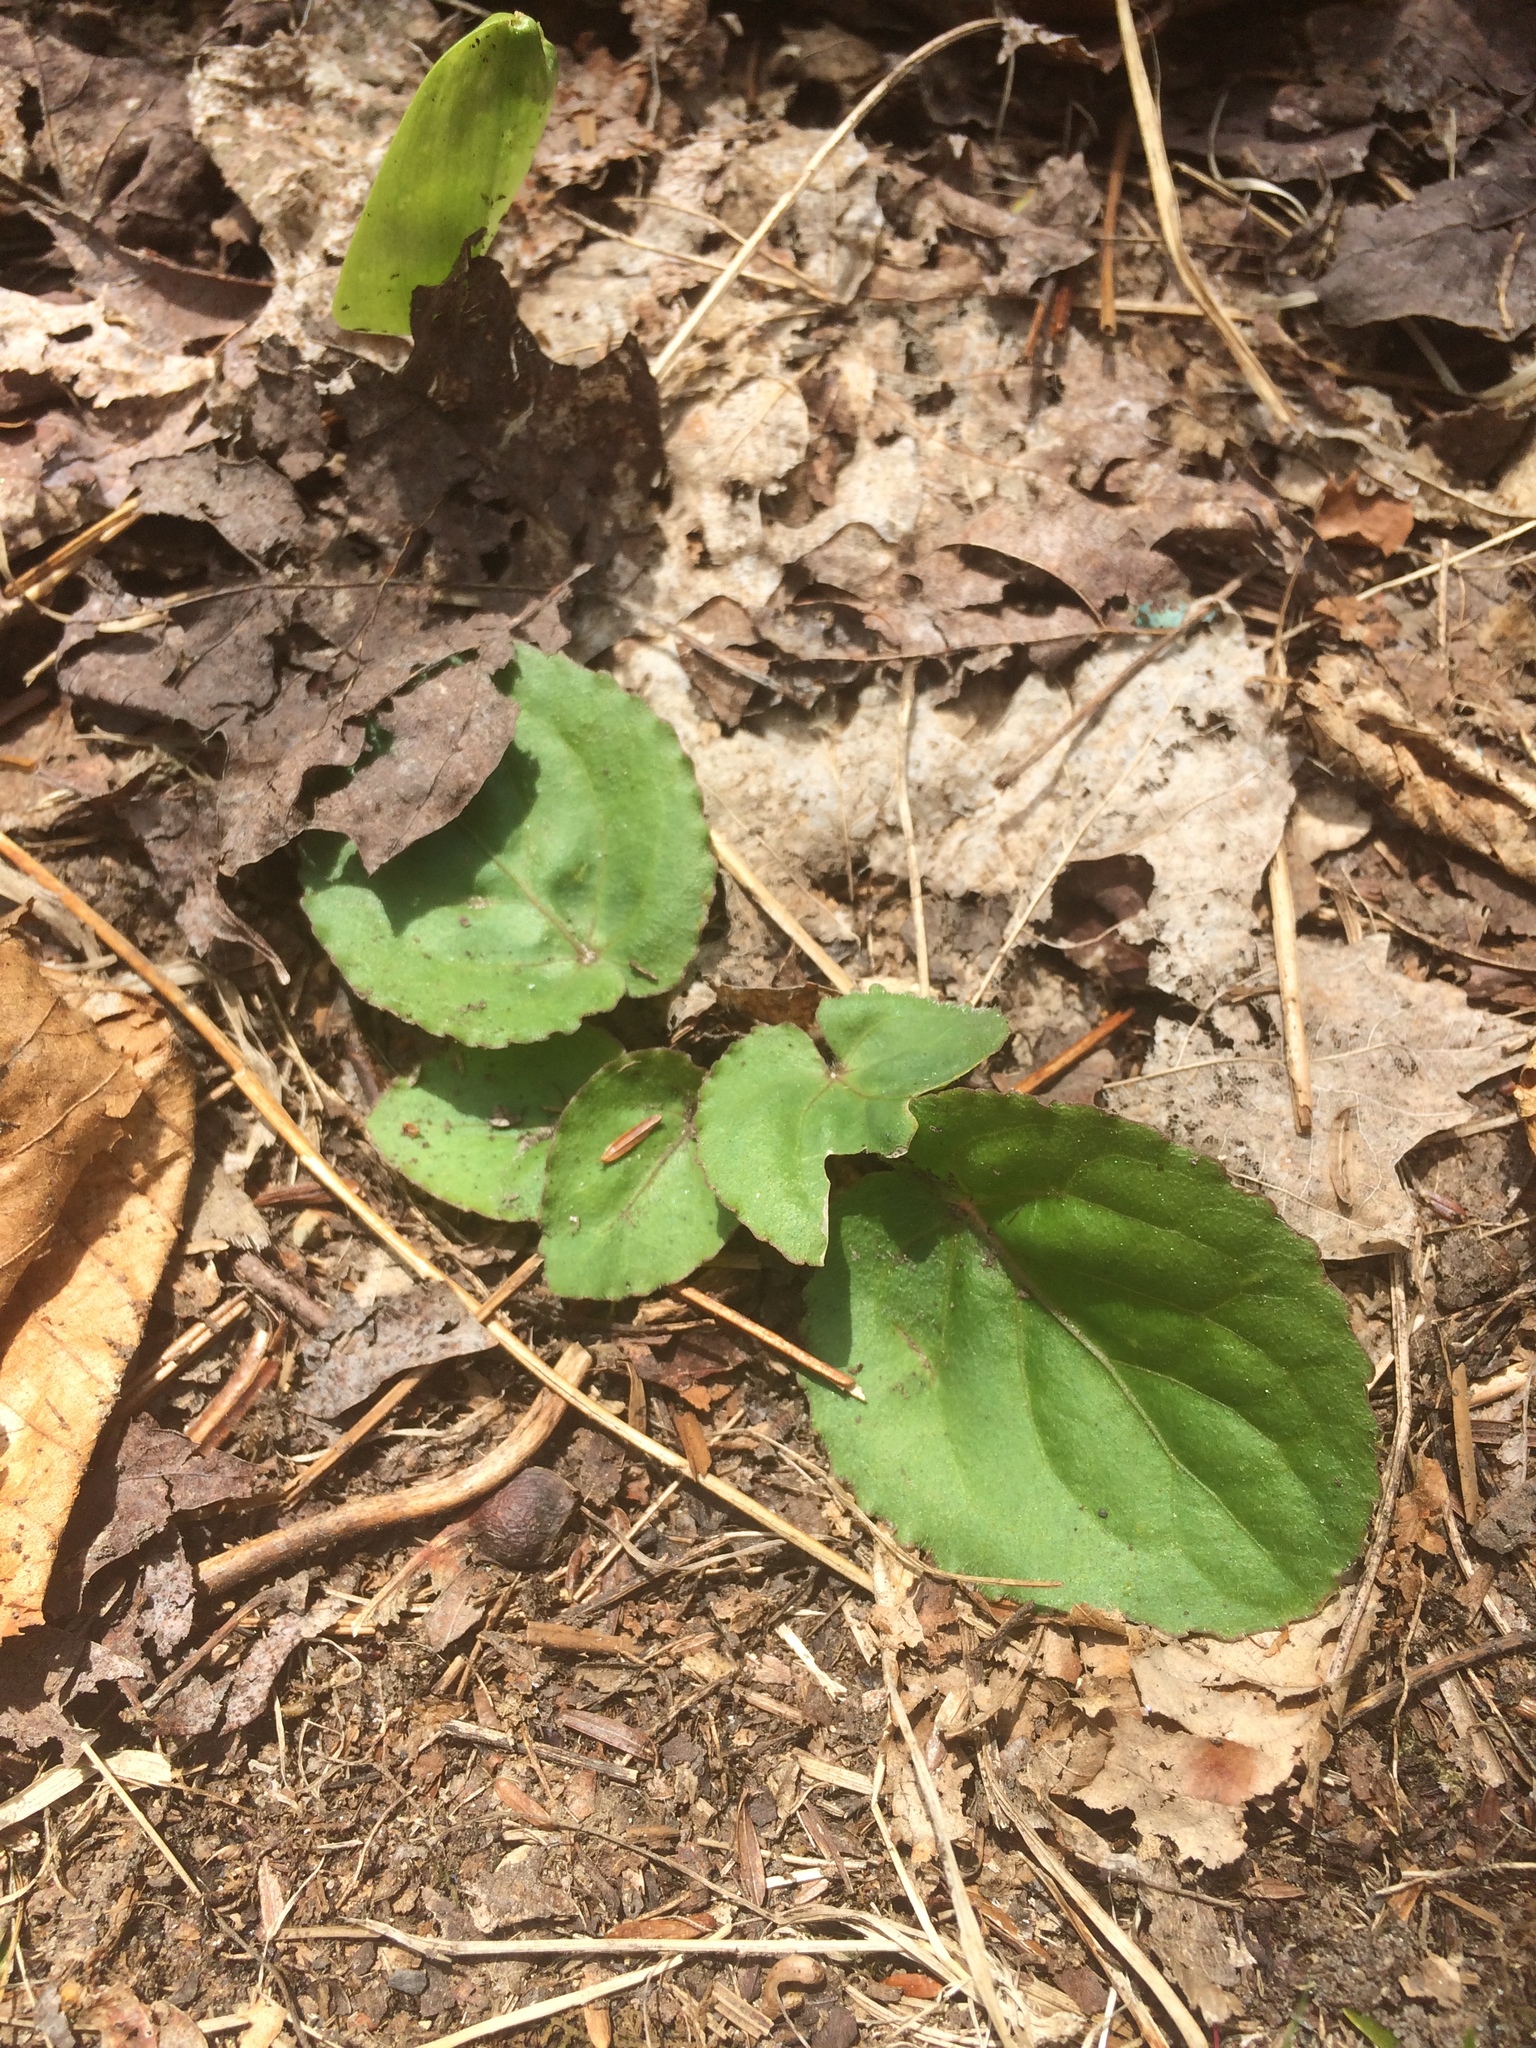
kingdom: Plantae
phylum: Tracheophyta
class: Magnoliopsida
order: Malpighiales
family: Violaceae
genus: Viola
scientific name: Viola rotundifolia
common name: Early yellow violet
